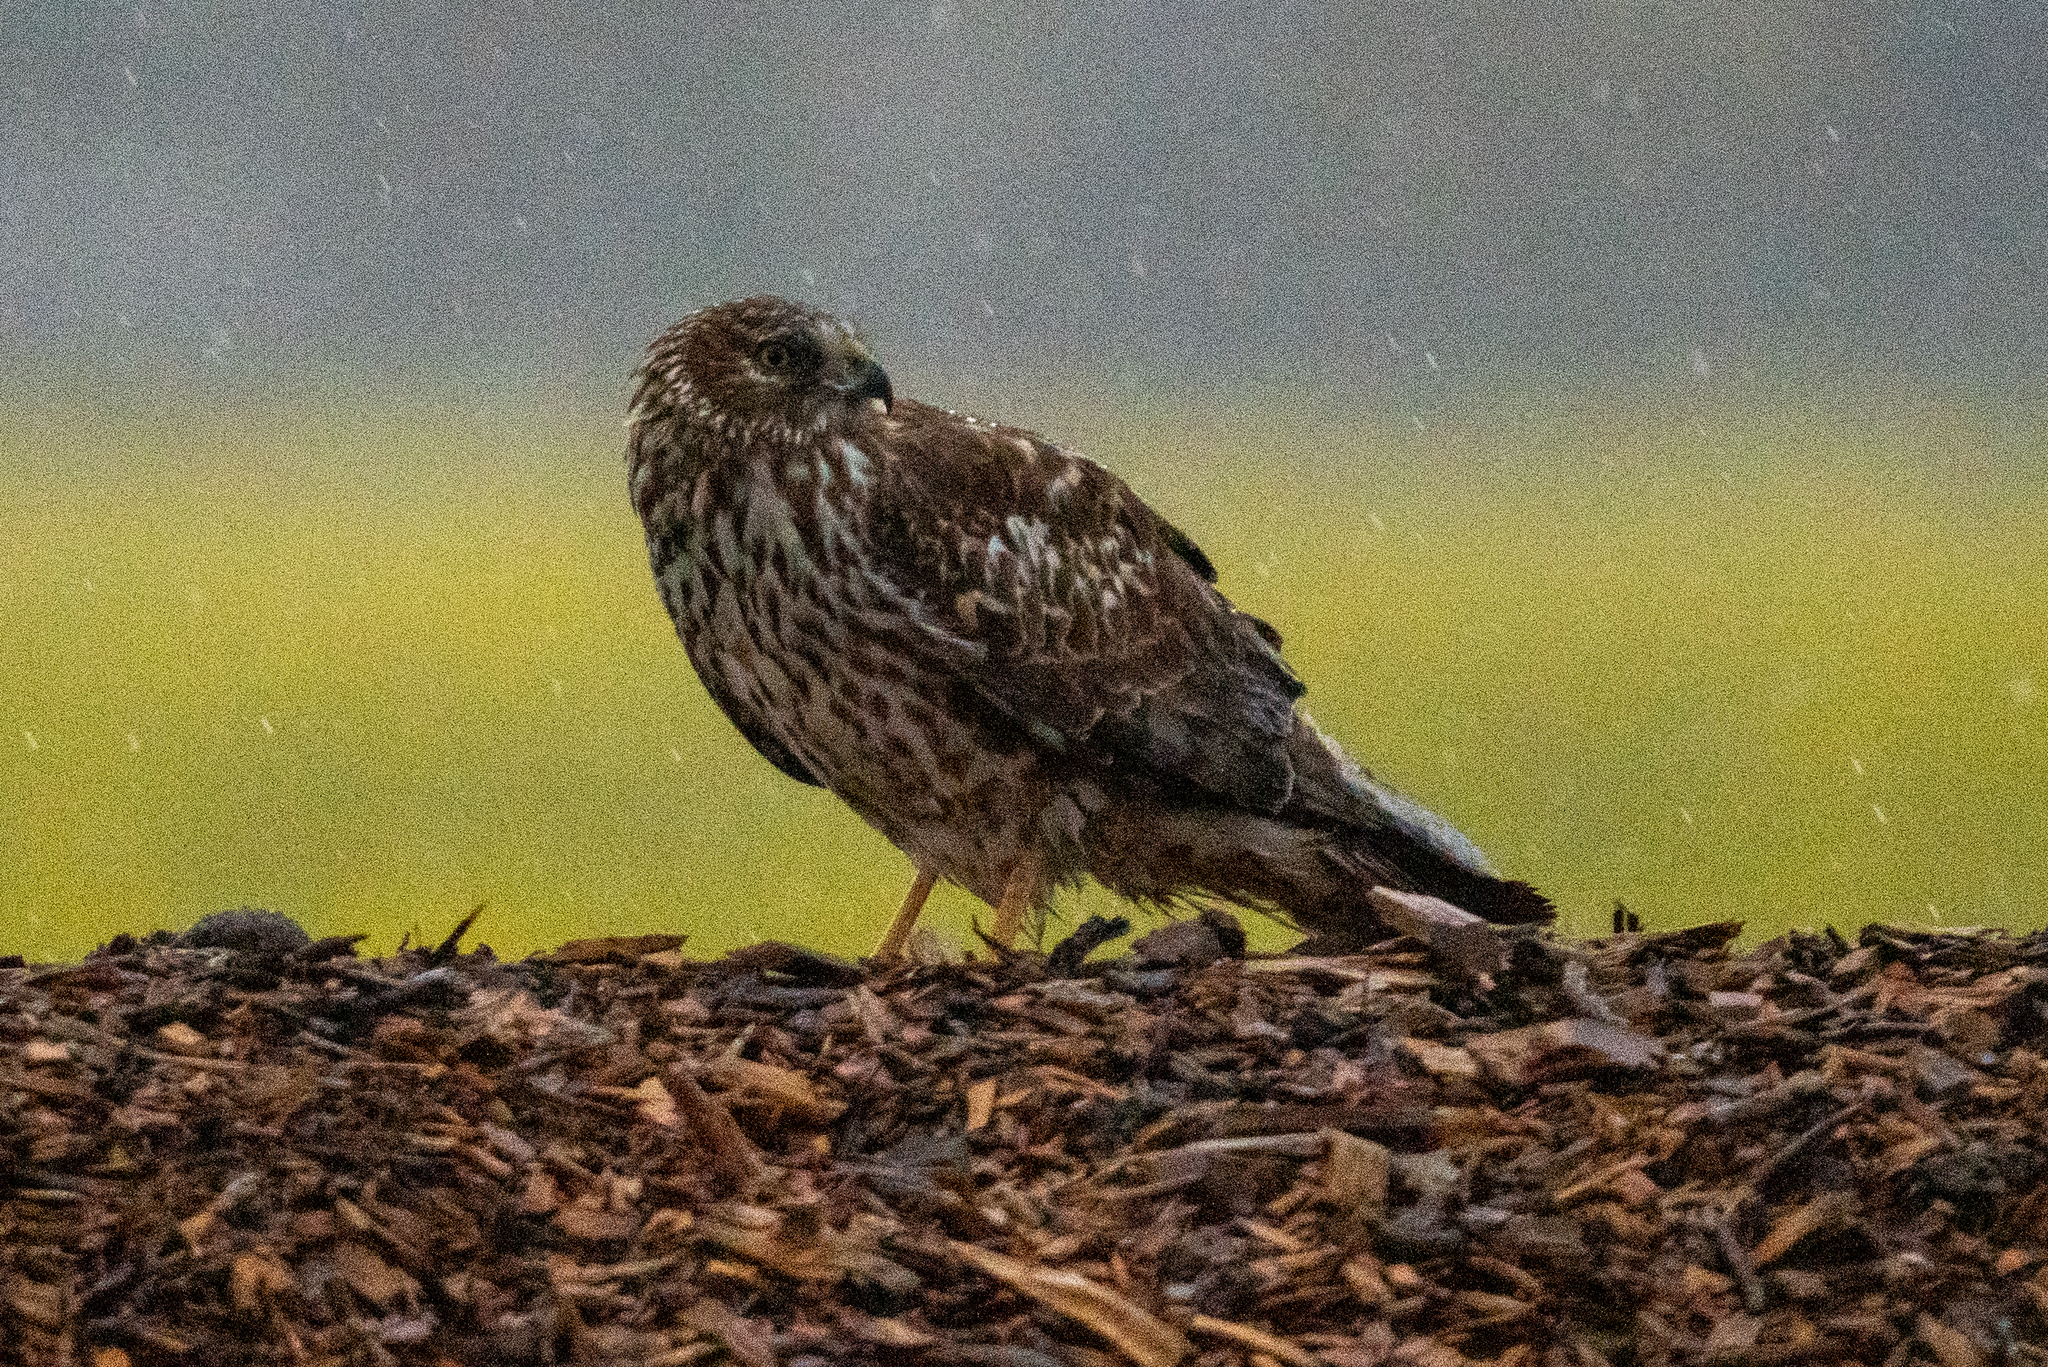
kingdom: Animalia
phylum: Chordata
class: Aves
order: Accipitriformes
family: Accipitridae
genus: Circus
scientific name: Circus cyaneus
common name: Hen harrier
